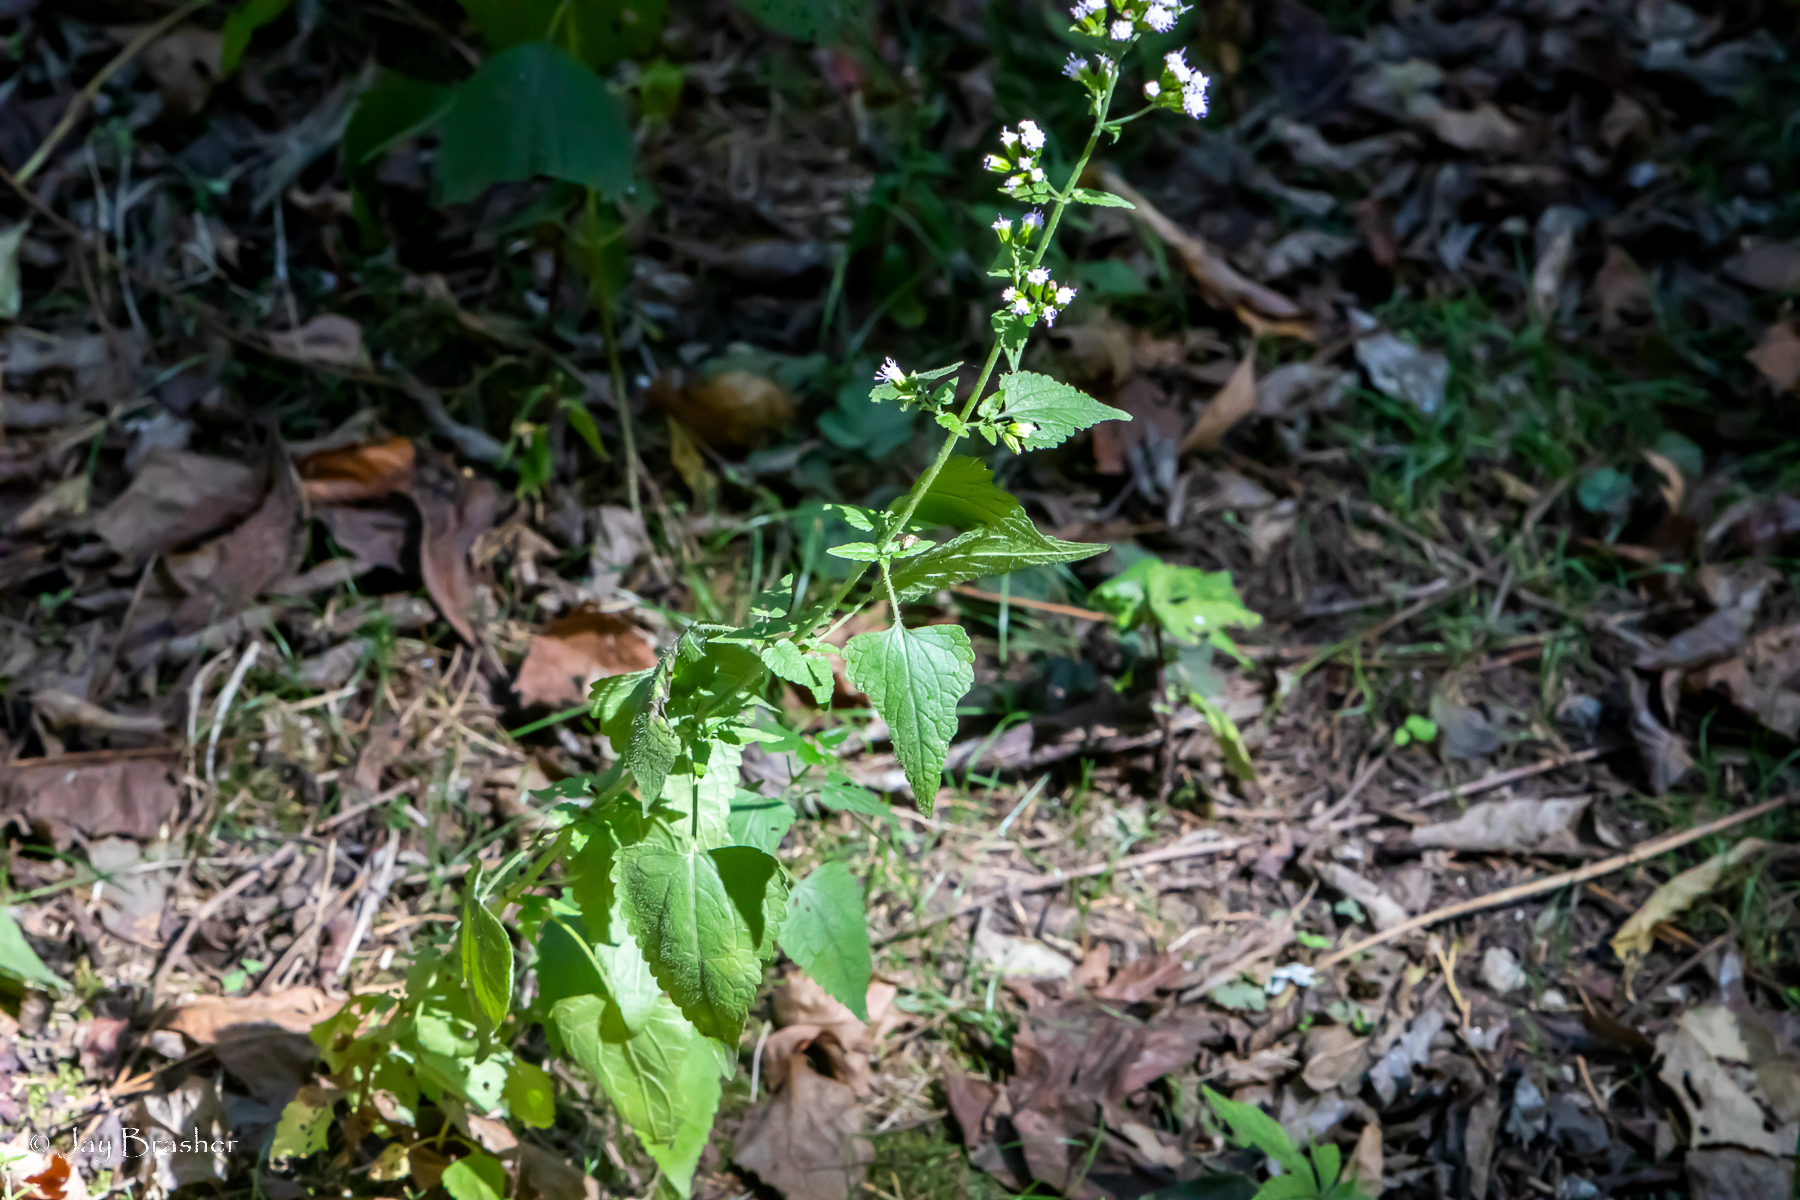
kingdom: Plantae
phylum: Tracheophyta
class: Magnoliopsida
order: Asterales
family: Asteraceae
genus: Fleischmannia
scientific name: Fleischmannia incarnata
